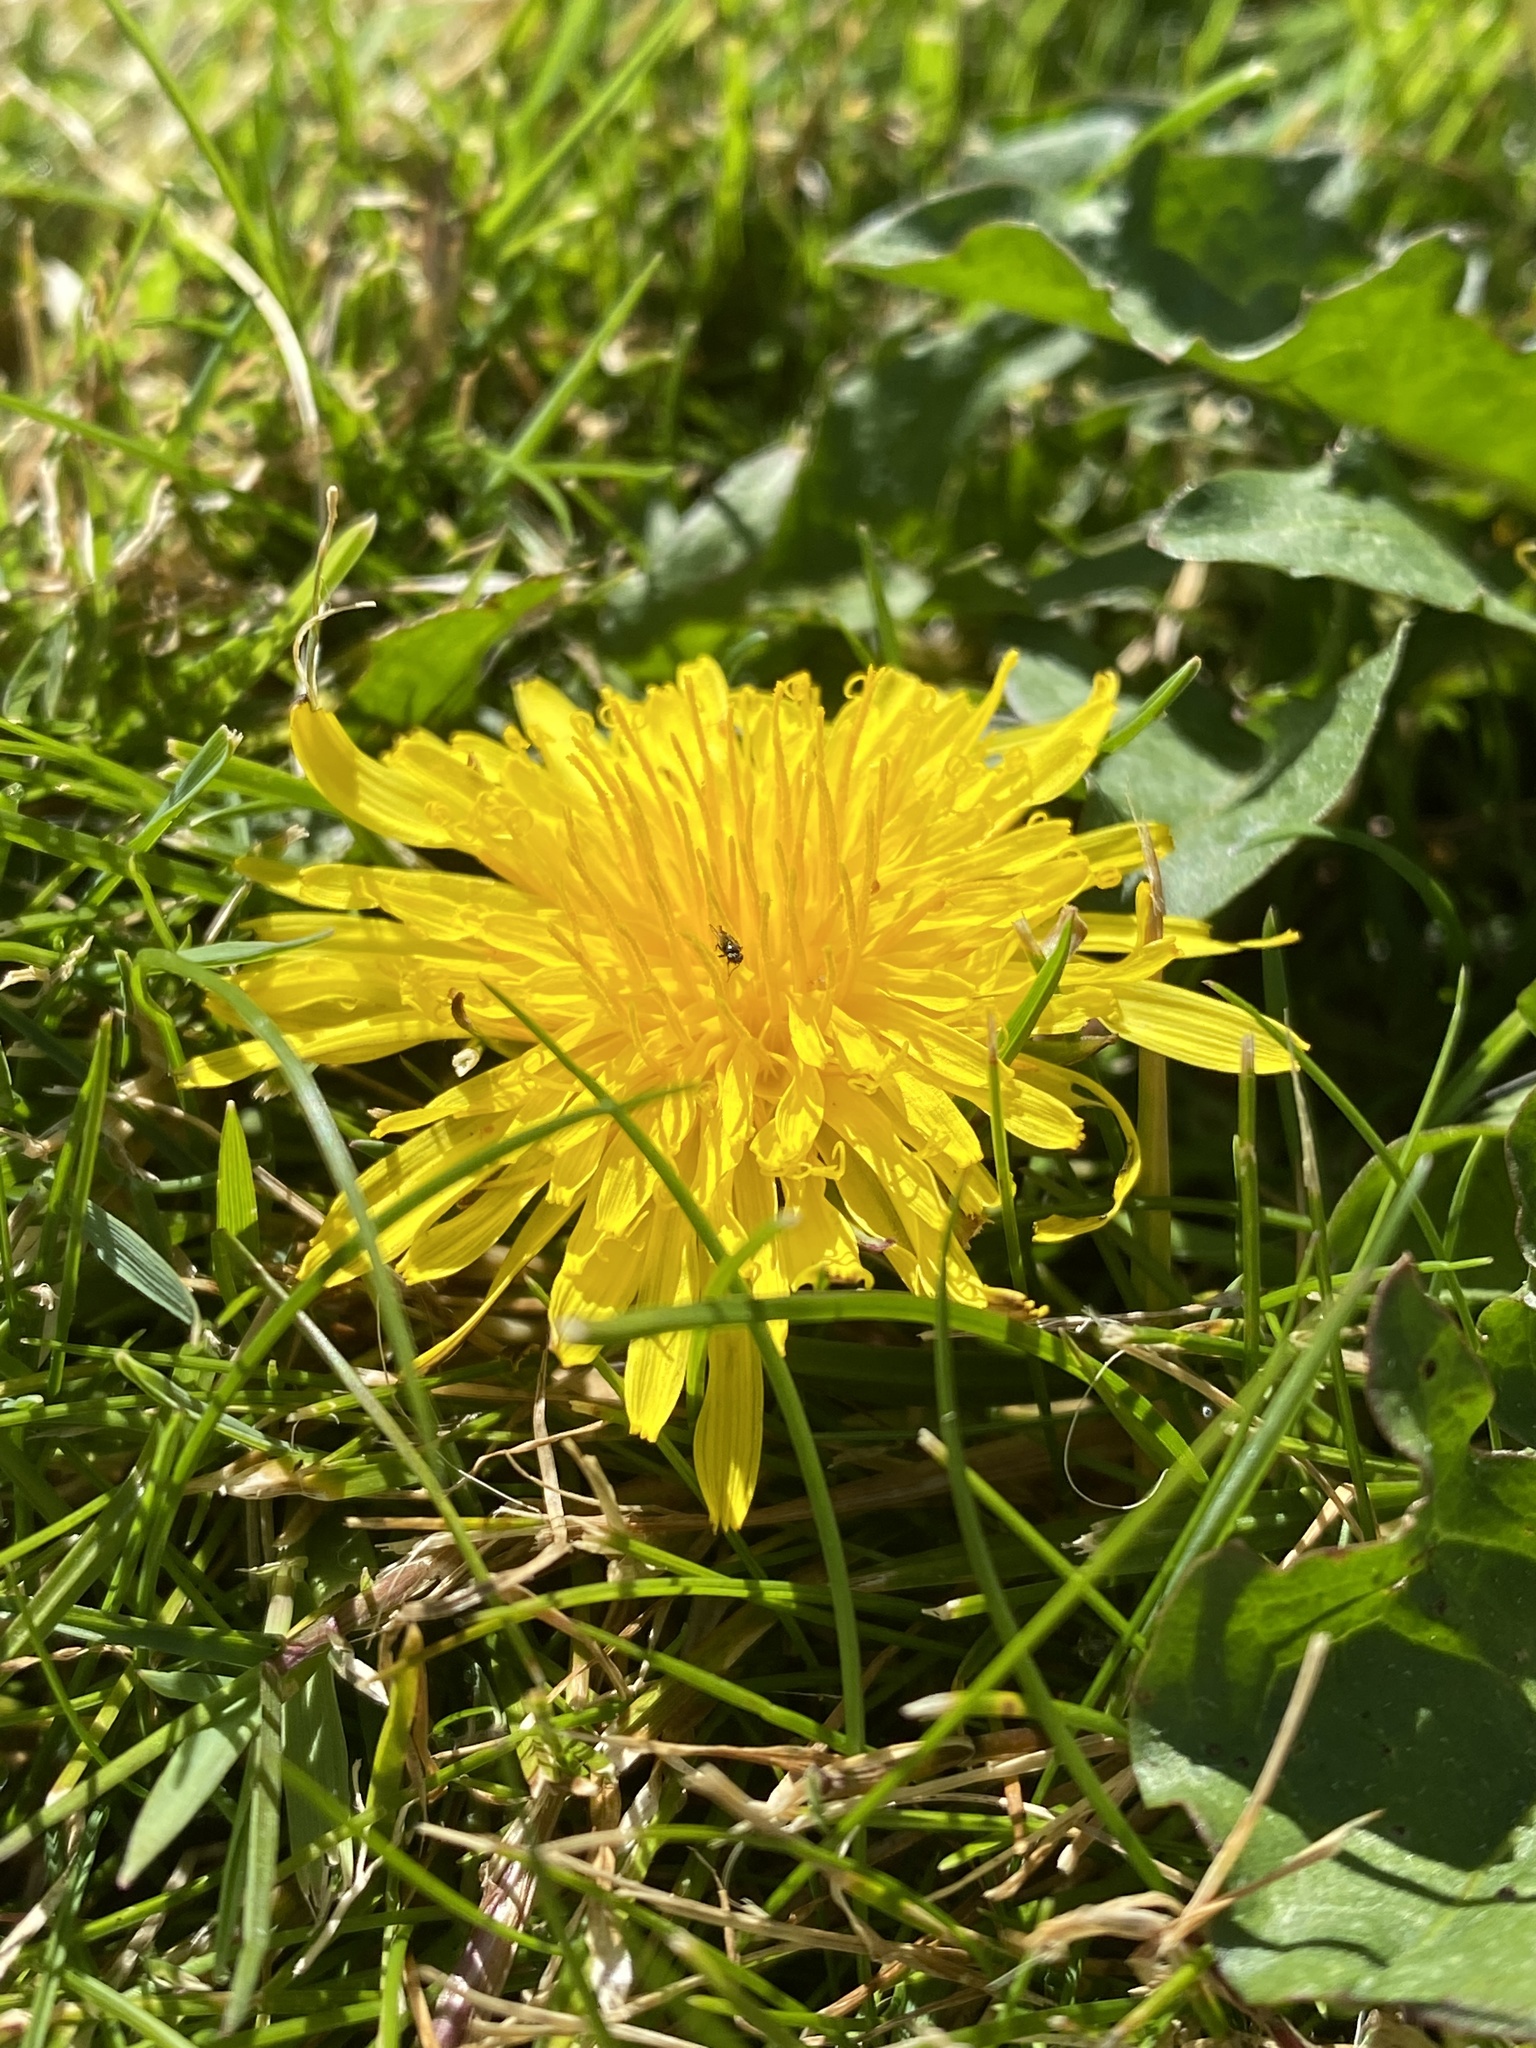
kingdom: Plantae
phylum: Tracheophyta
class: Magnoliopsida
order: Asterales
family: Asteraceae
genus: Taraxacum
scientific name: Taraxacum officinale
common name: Common dandelion
